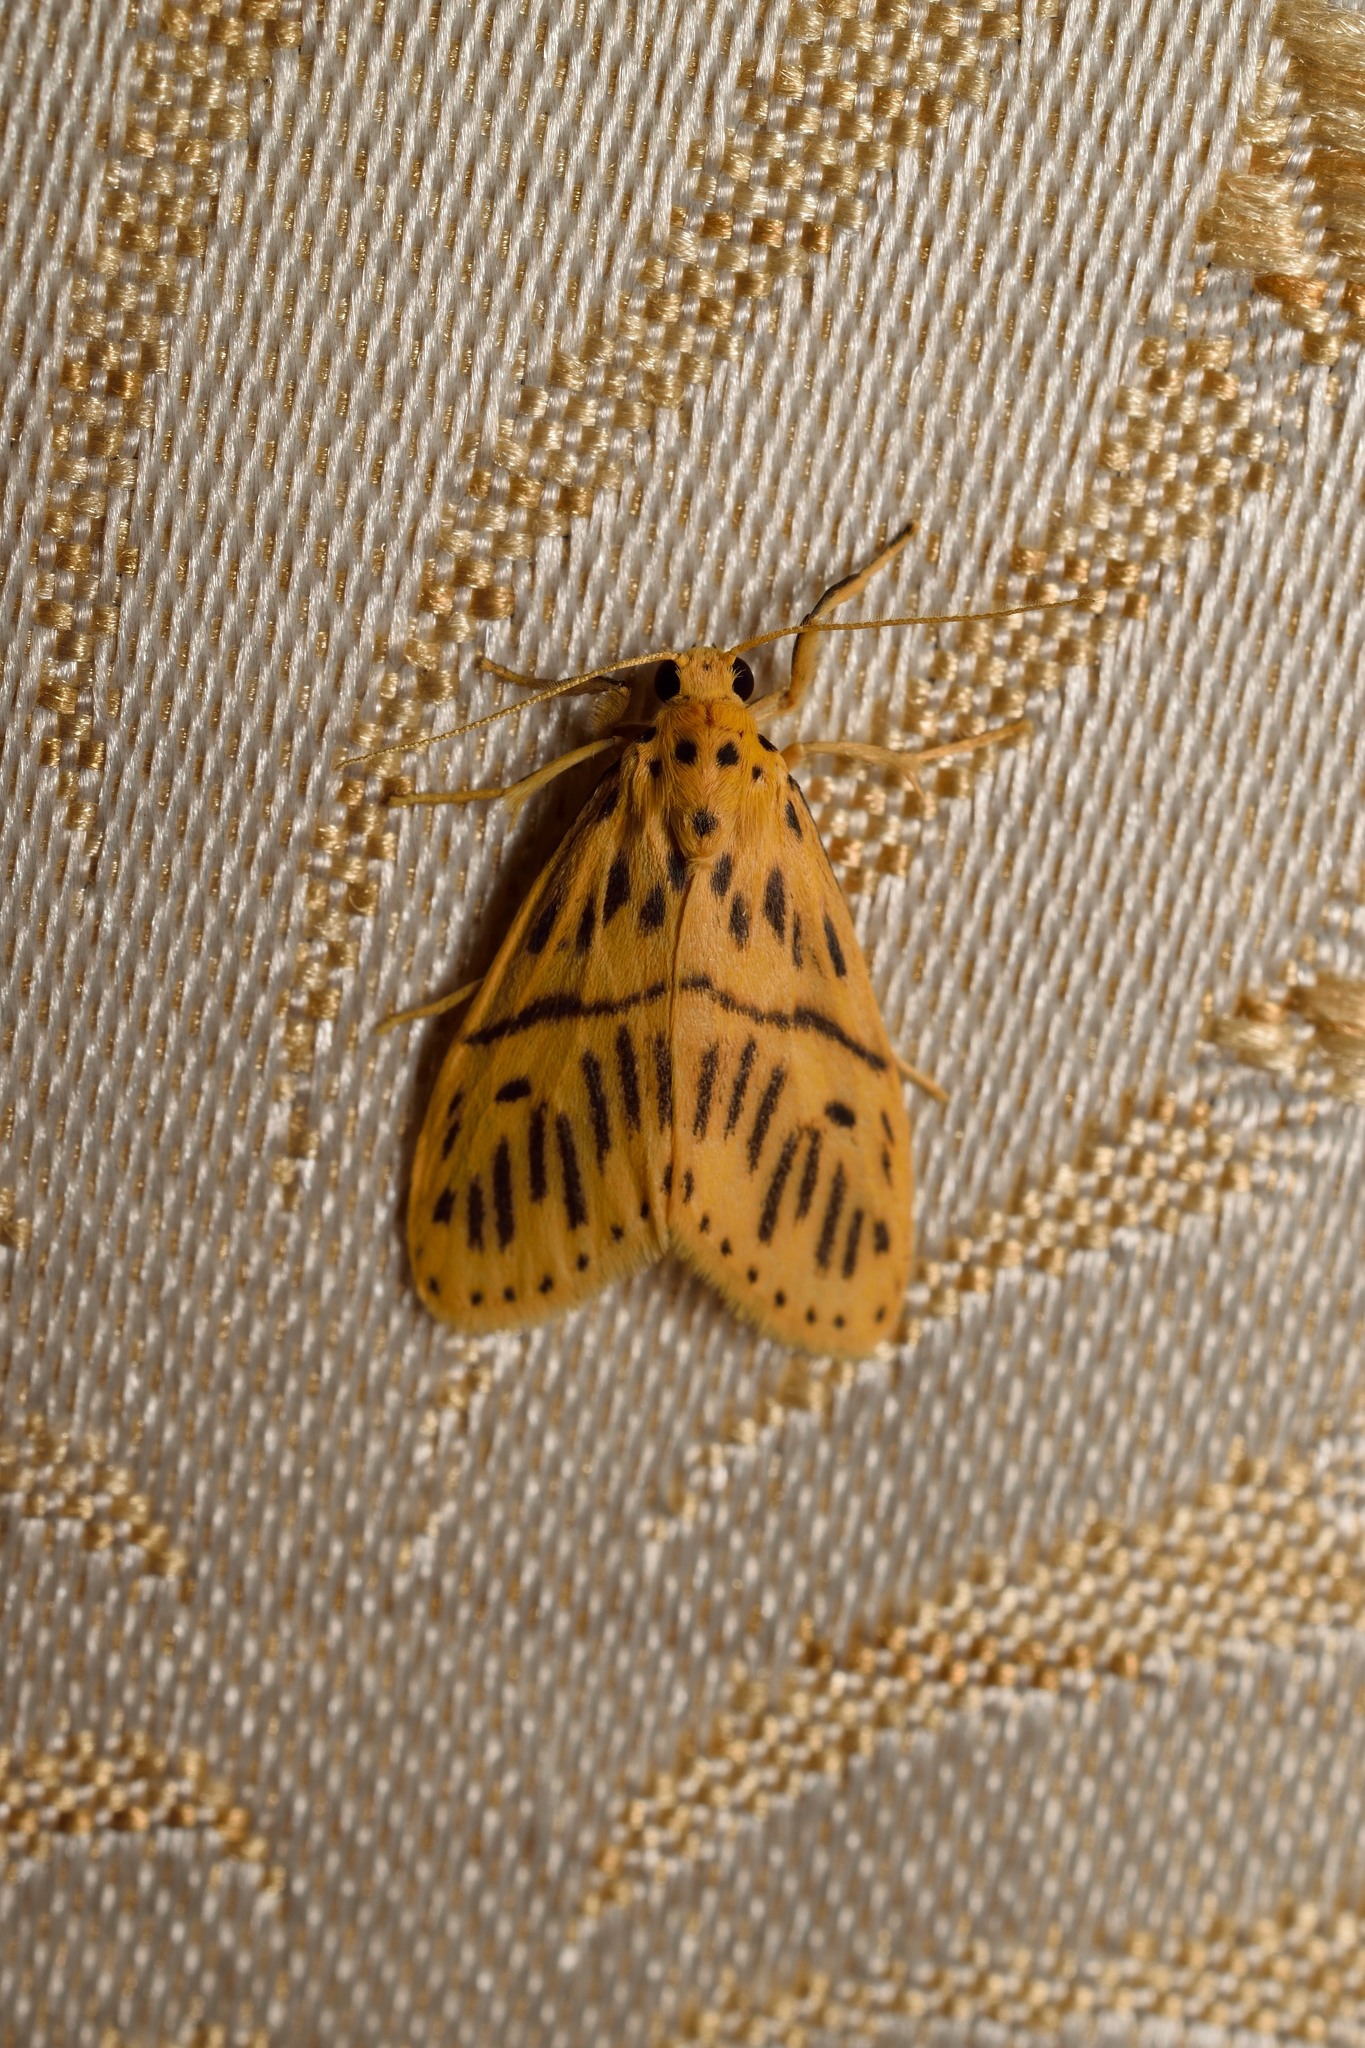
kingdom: Animalia
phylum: Arthropoda
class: Insecta
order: Lepidoptera
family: Erebidae
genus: Miltochrista
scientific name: Miltochrista strigipennis
